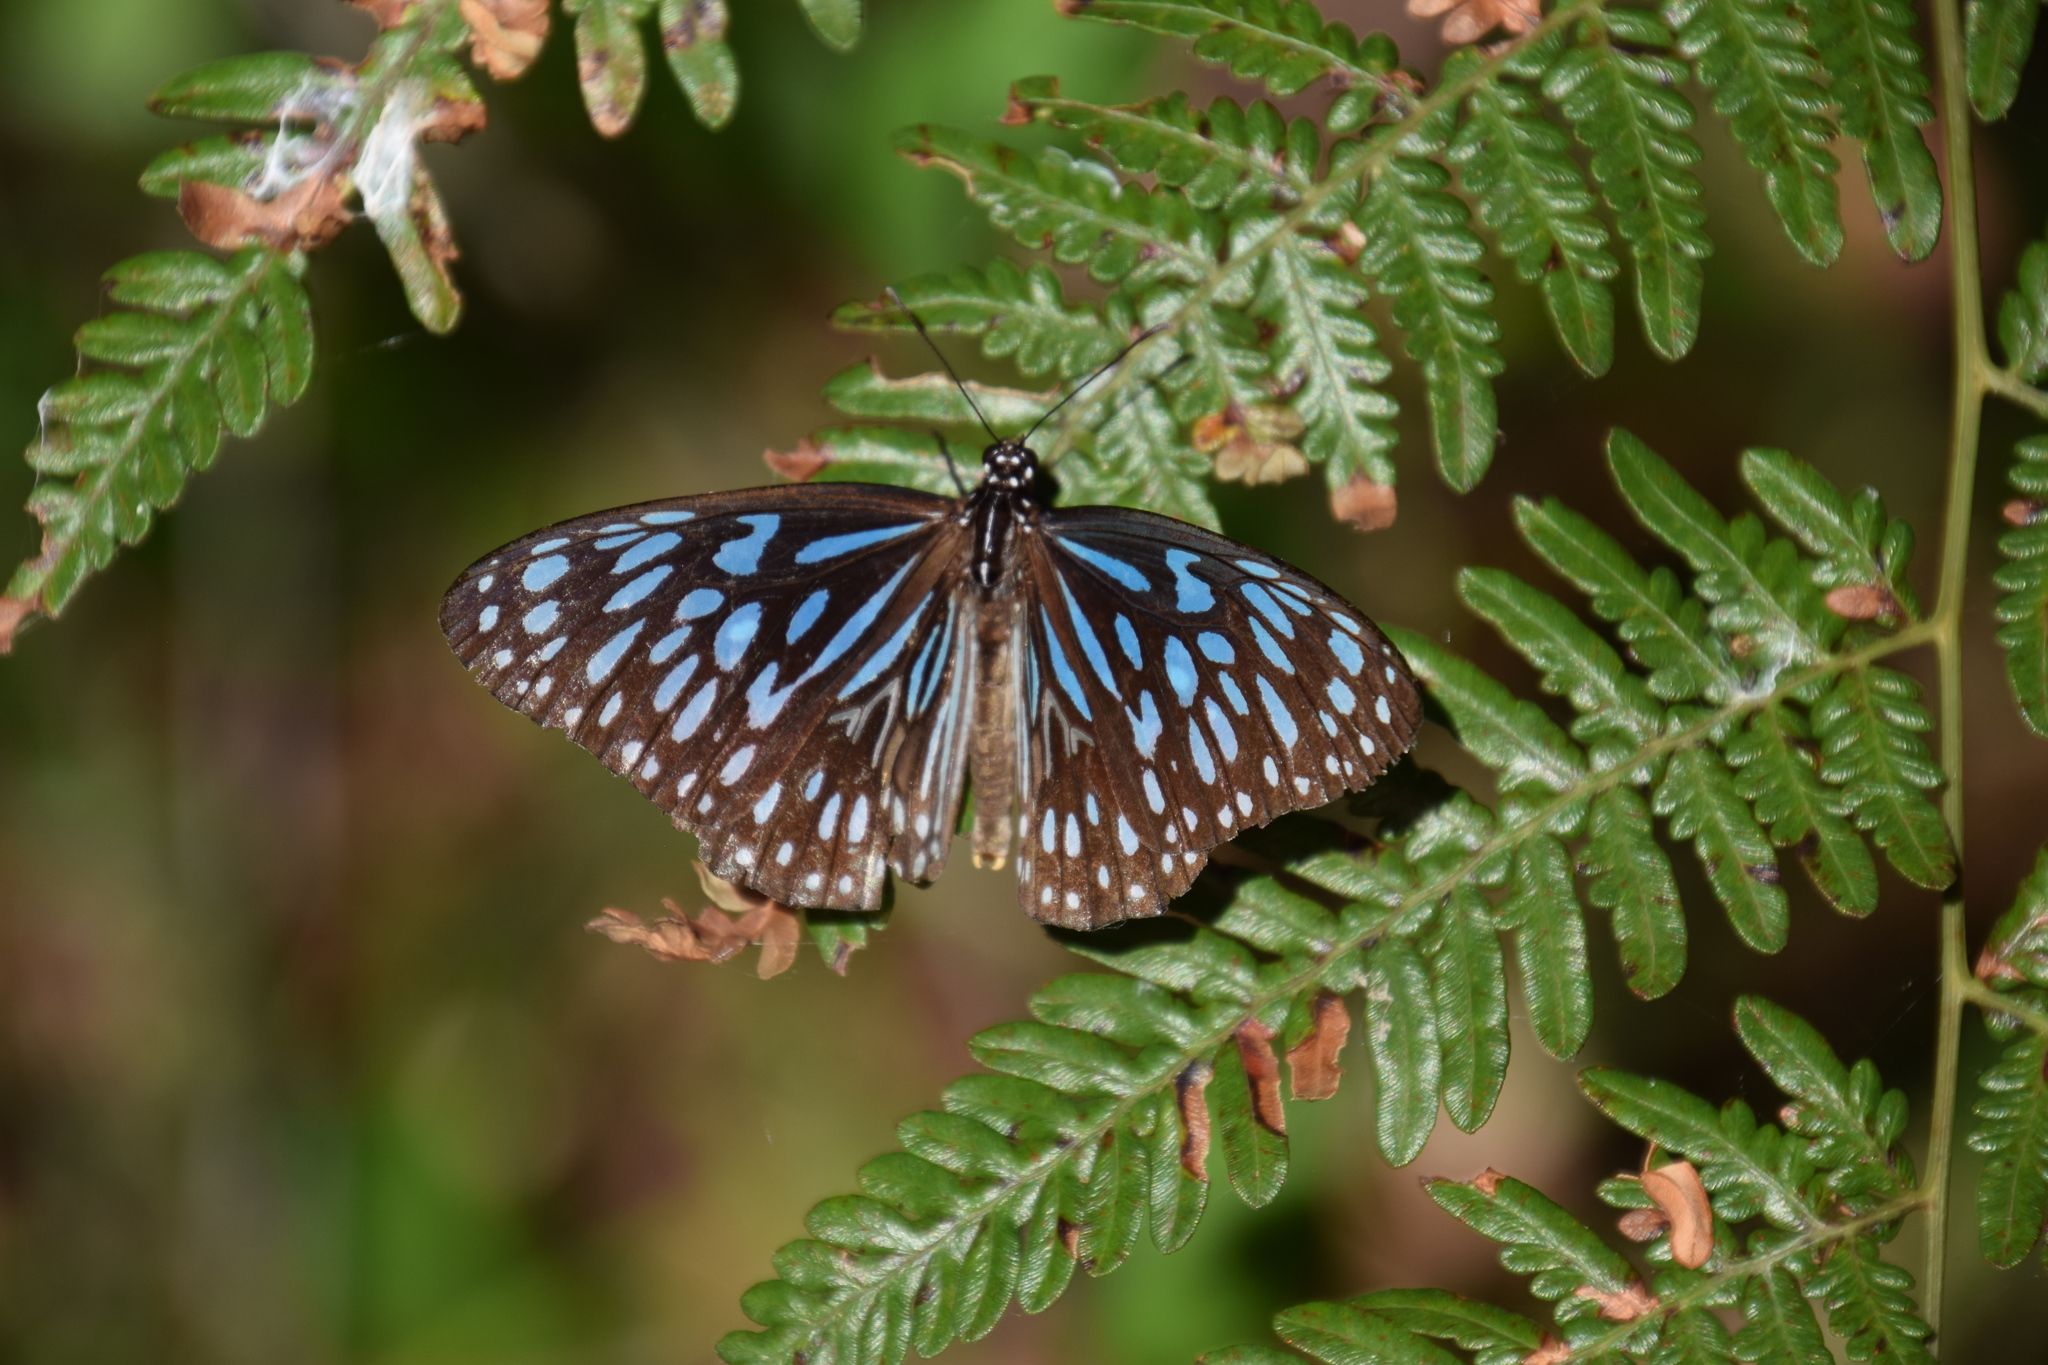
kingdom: Animalia
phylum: Arthropoda
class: Insecta
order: Lepidoptera
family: Nymphalidae
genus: Tirumala
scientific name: Tirumala hamata
